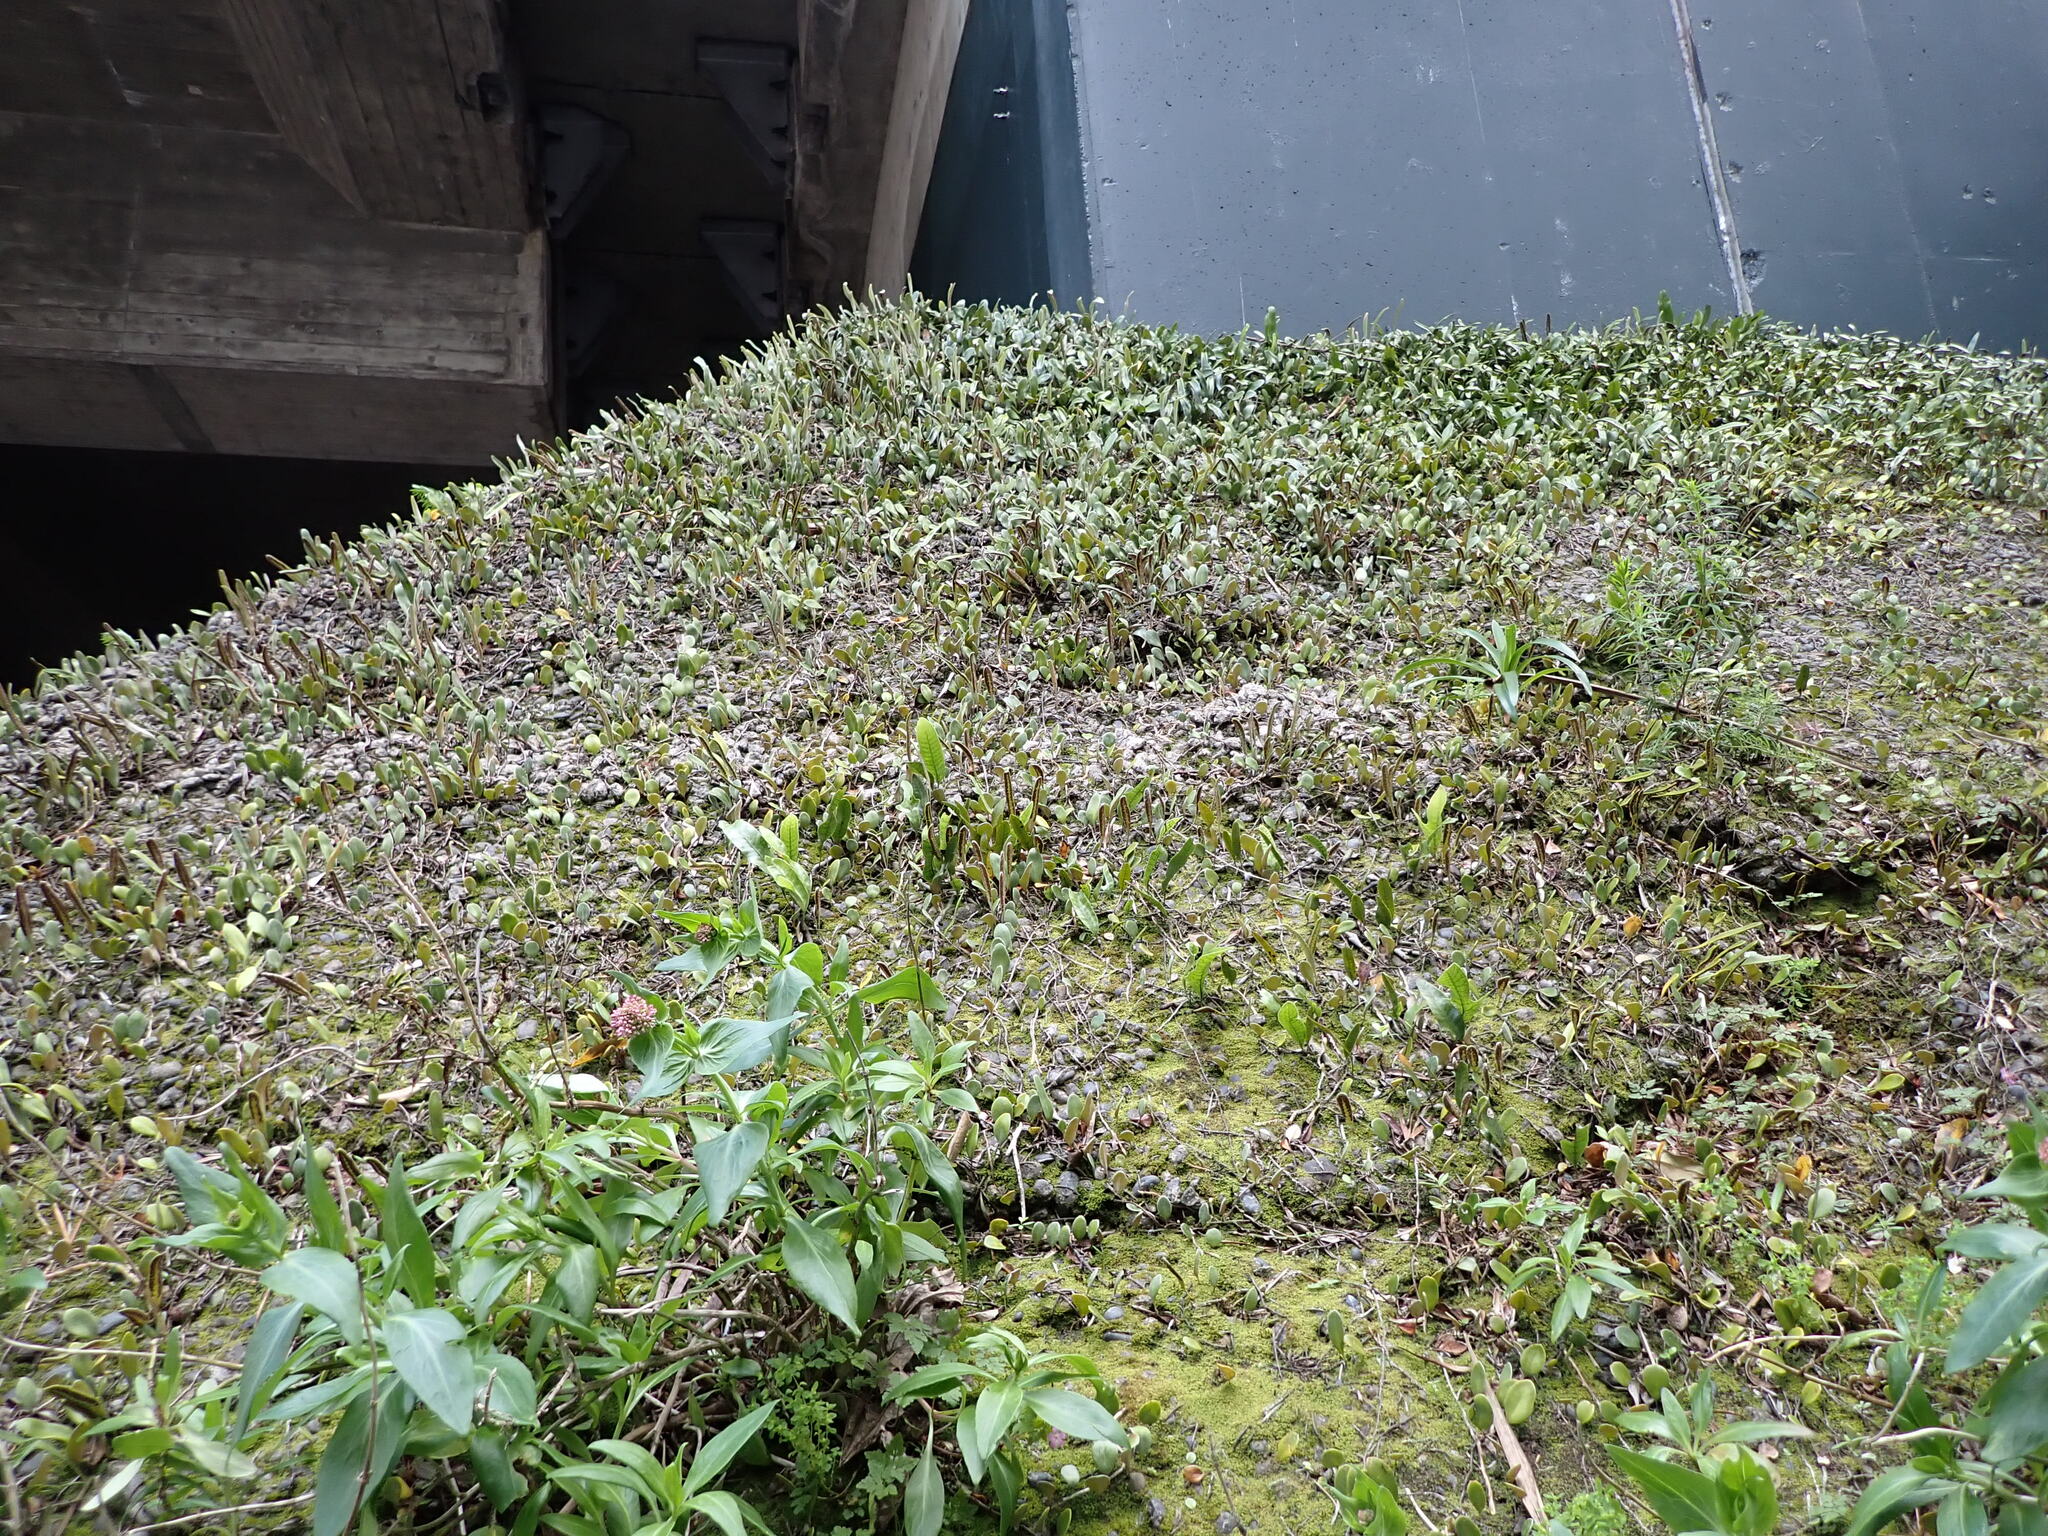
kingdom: Plantae
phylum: Tracheophyta
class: Polypodiopsida
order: Polypodiales
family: Polypodiaceae
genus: Pyrrosia
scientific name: Pyrrosia eleagnifolia
